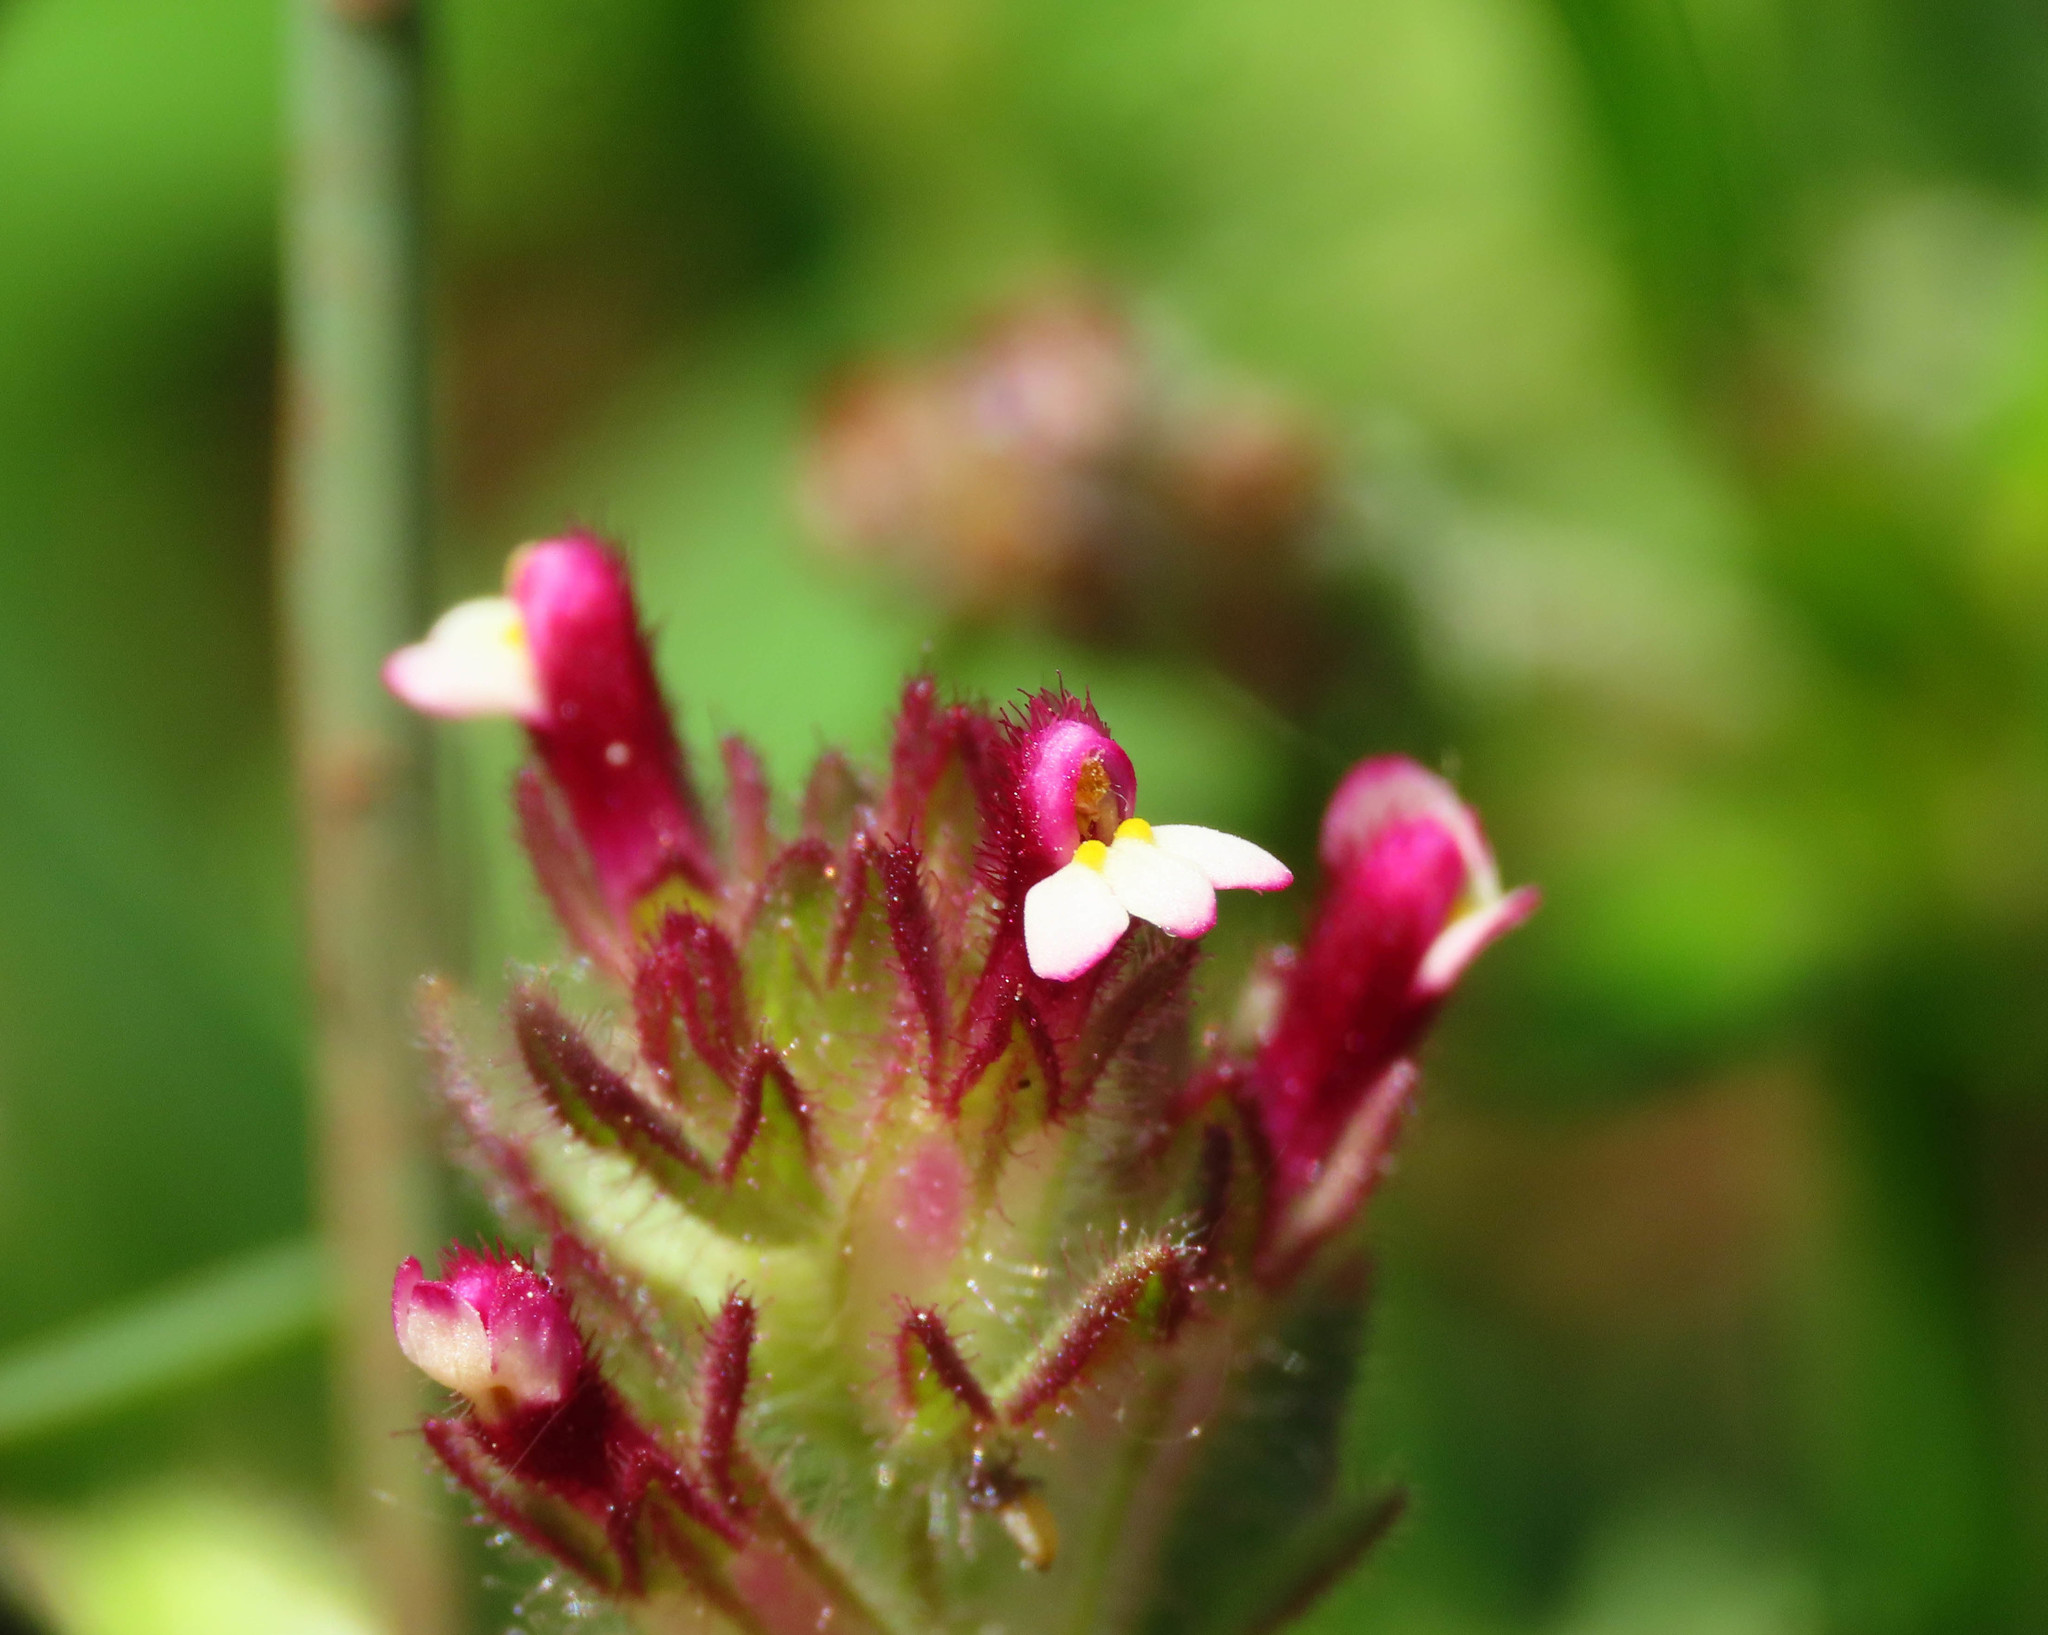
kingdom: Plantae
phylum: Tracheophyta
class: Magnoliopsida
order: Lamiales
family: Orobanchaceae
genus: Parentucellia
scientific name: Parentucellia latifolia
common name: Broadleaf glandweed
